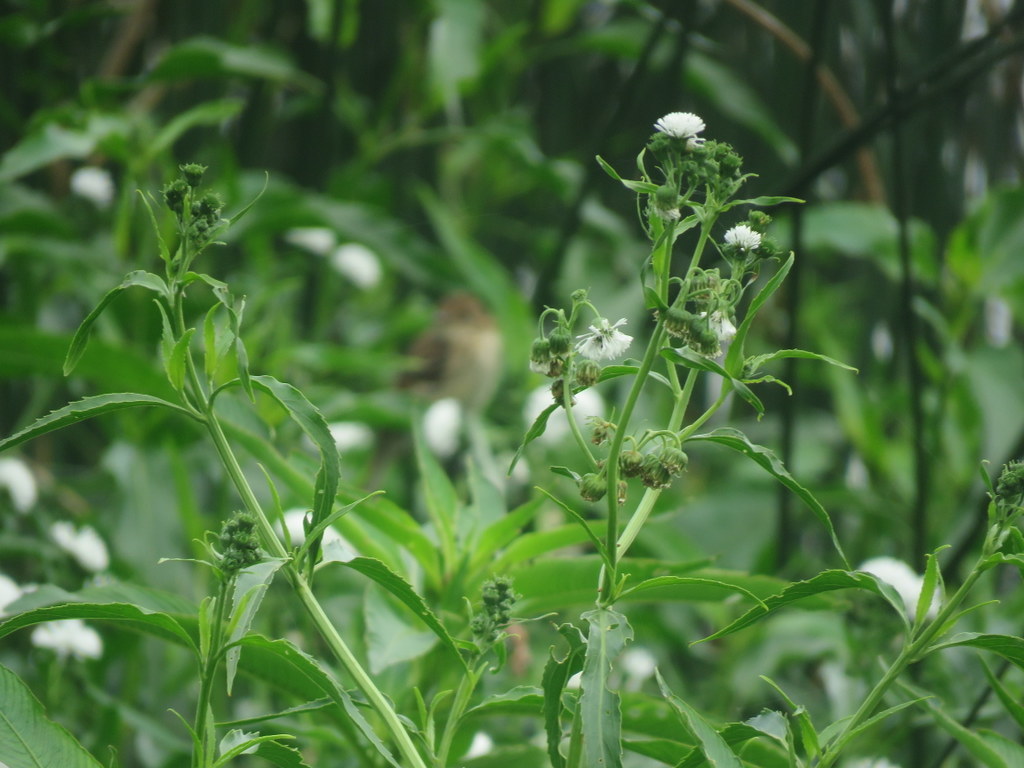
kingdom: Plantae
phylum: Tracheophyta
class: Liliopsida
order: Alismatales
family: Alismataceae
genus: Aquarius
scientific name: Aquarius grandiflorus
